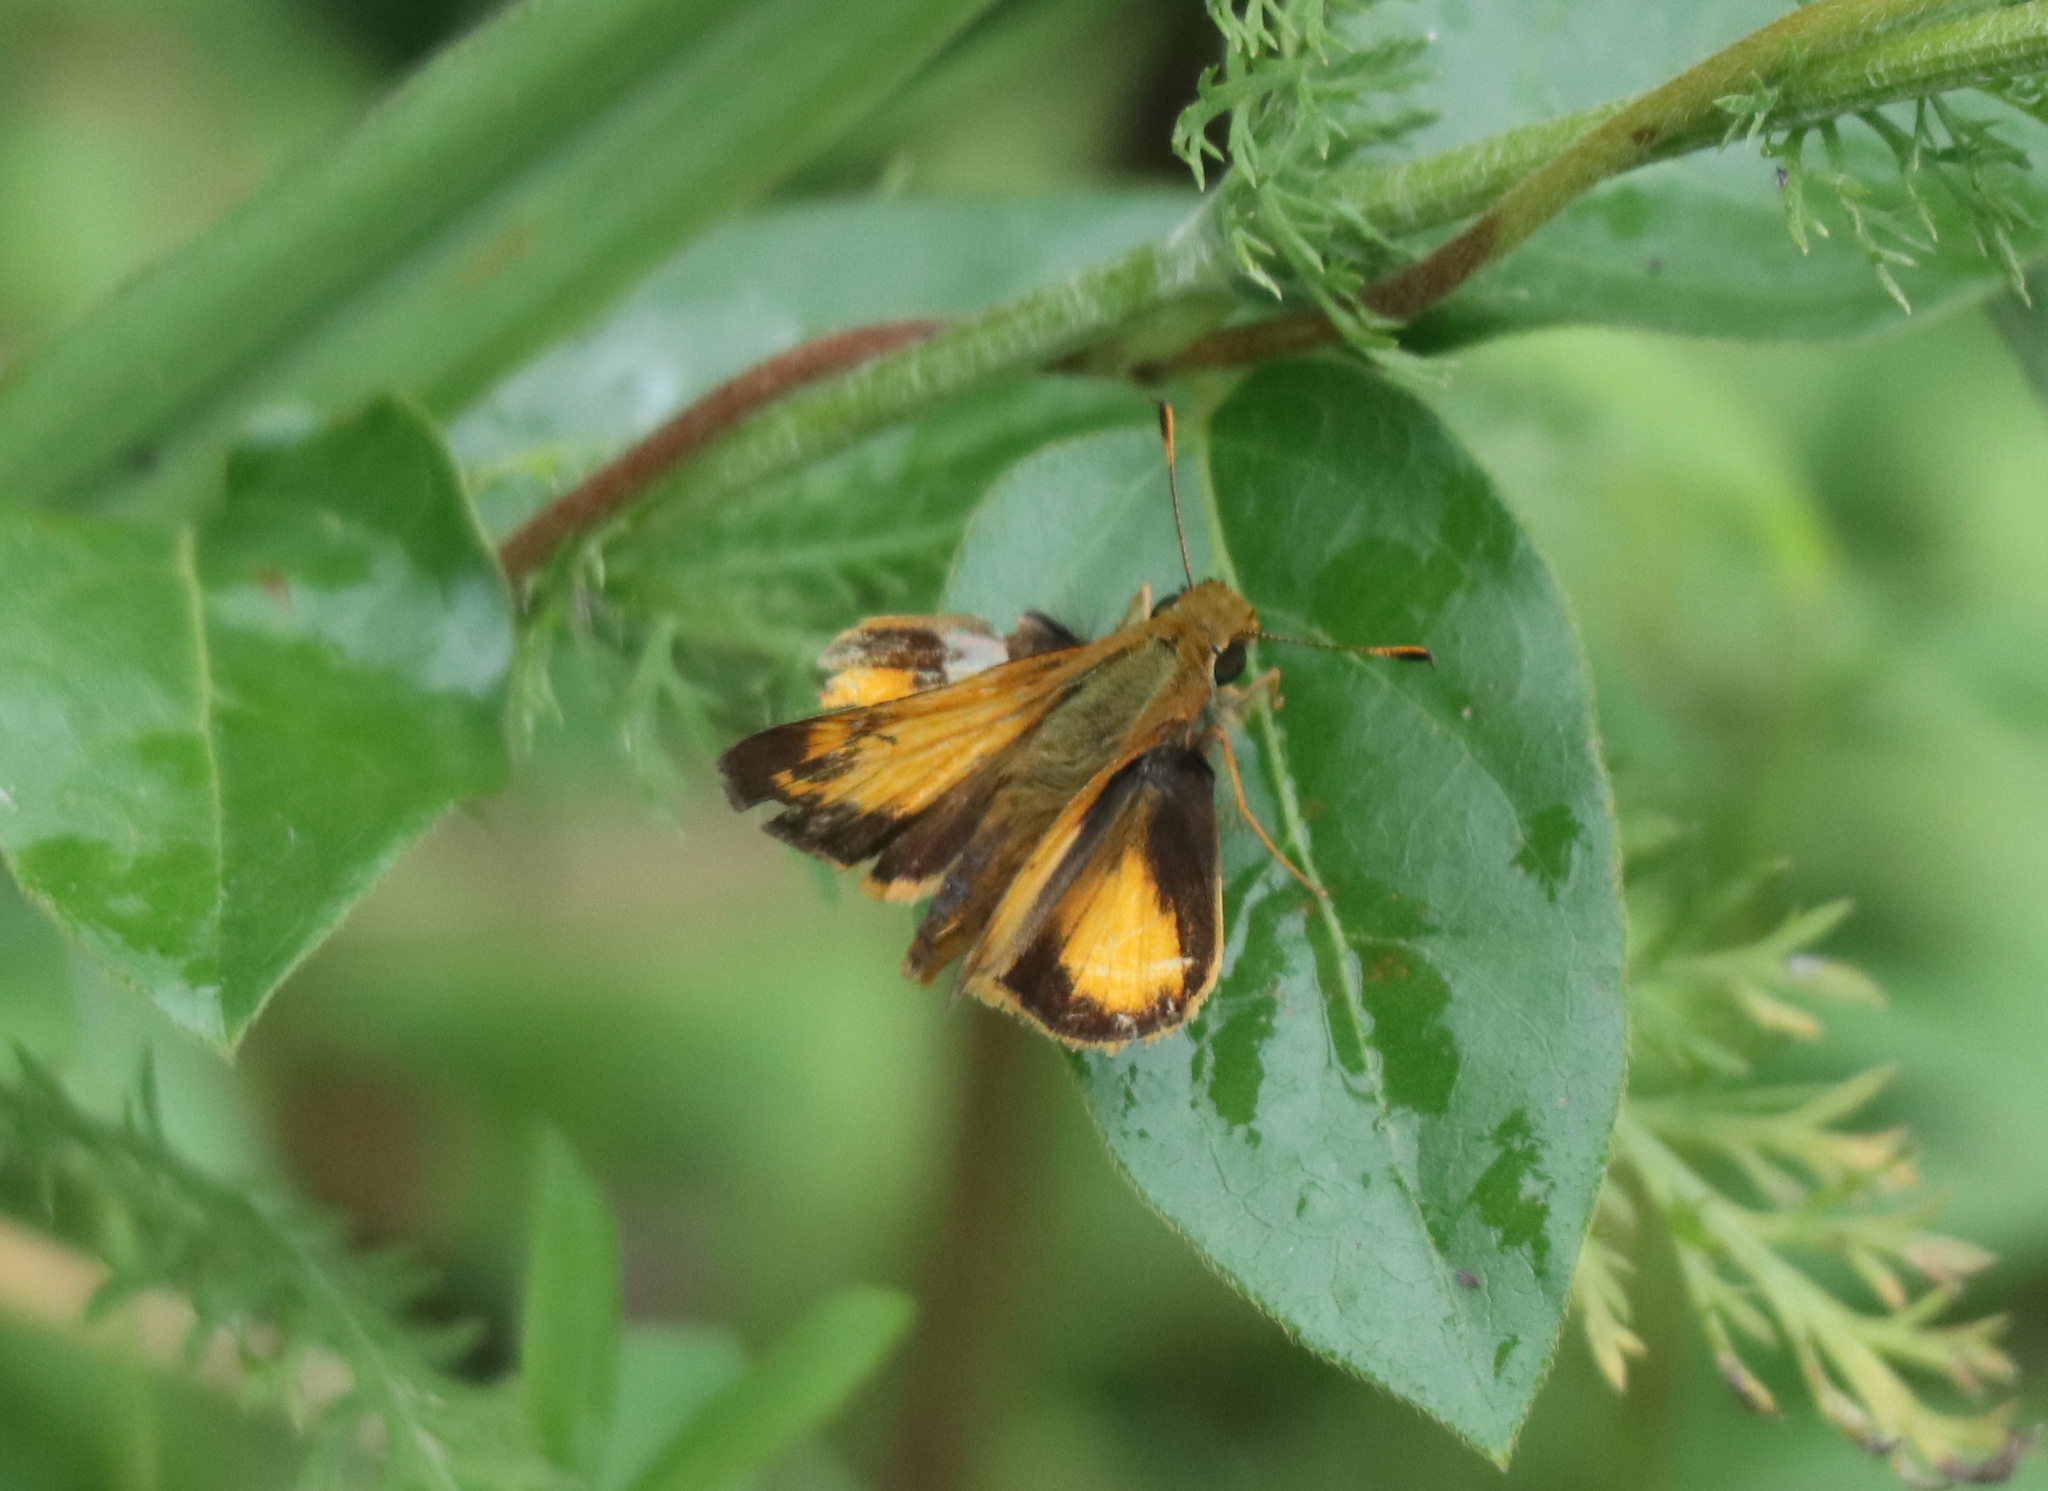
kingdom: Animalia
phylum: Arthropoda
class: Insecta
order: Lepidoptera
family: Hesperiidae
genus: Lon
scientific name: Lon zabulon
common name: Zabulon skipper
